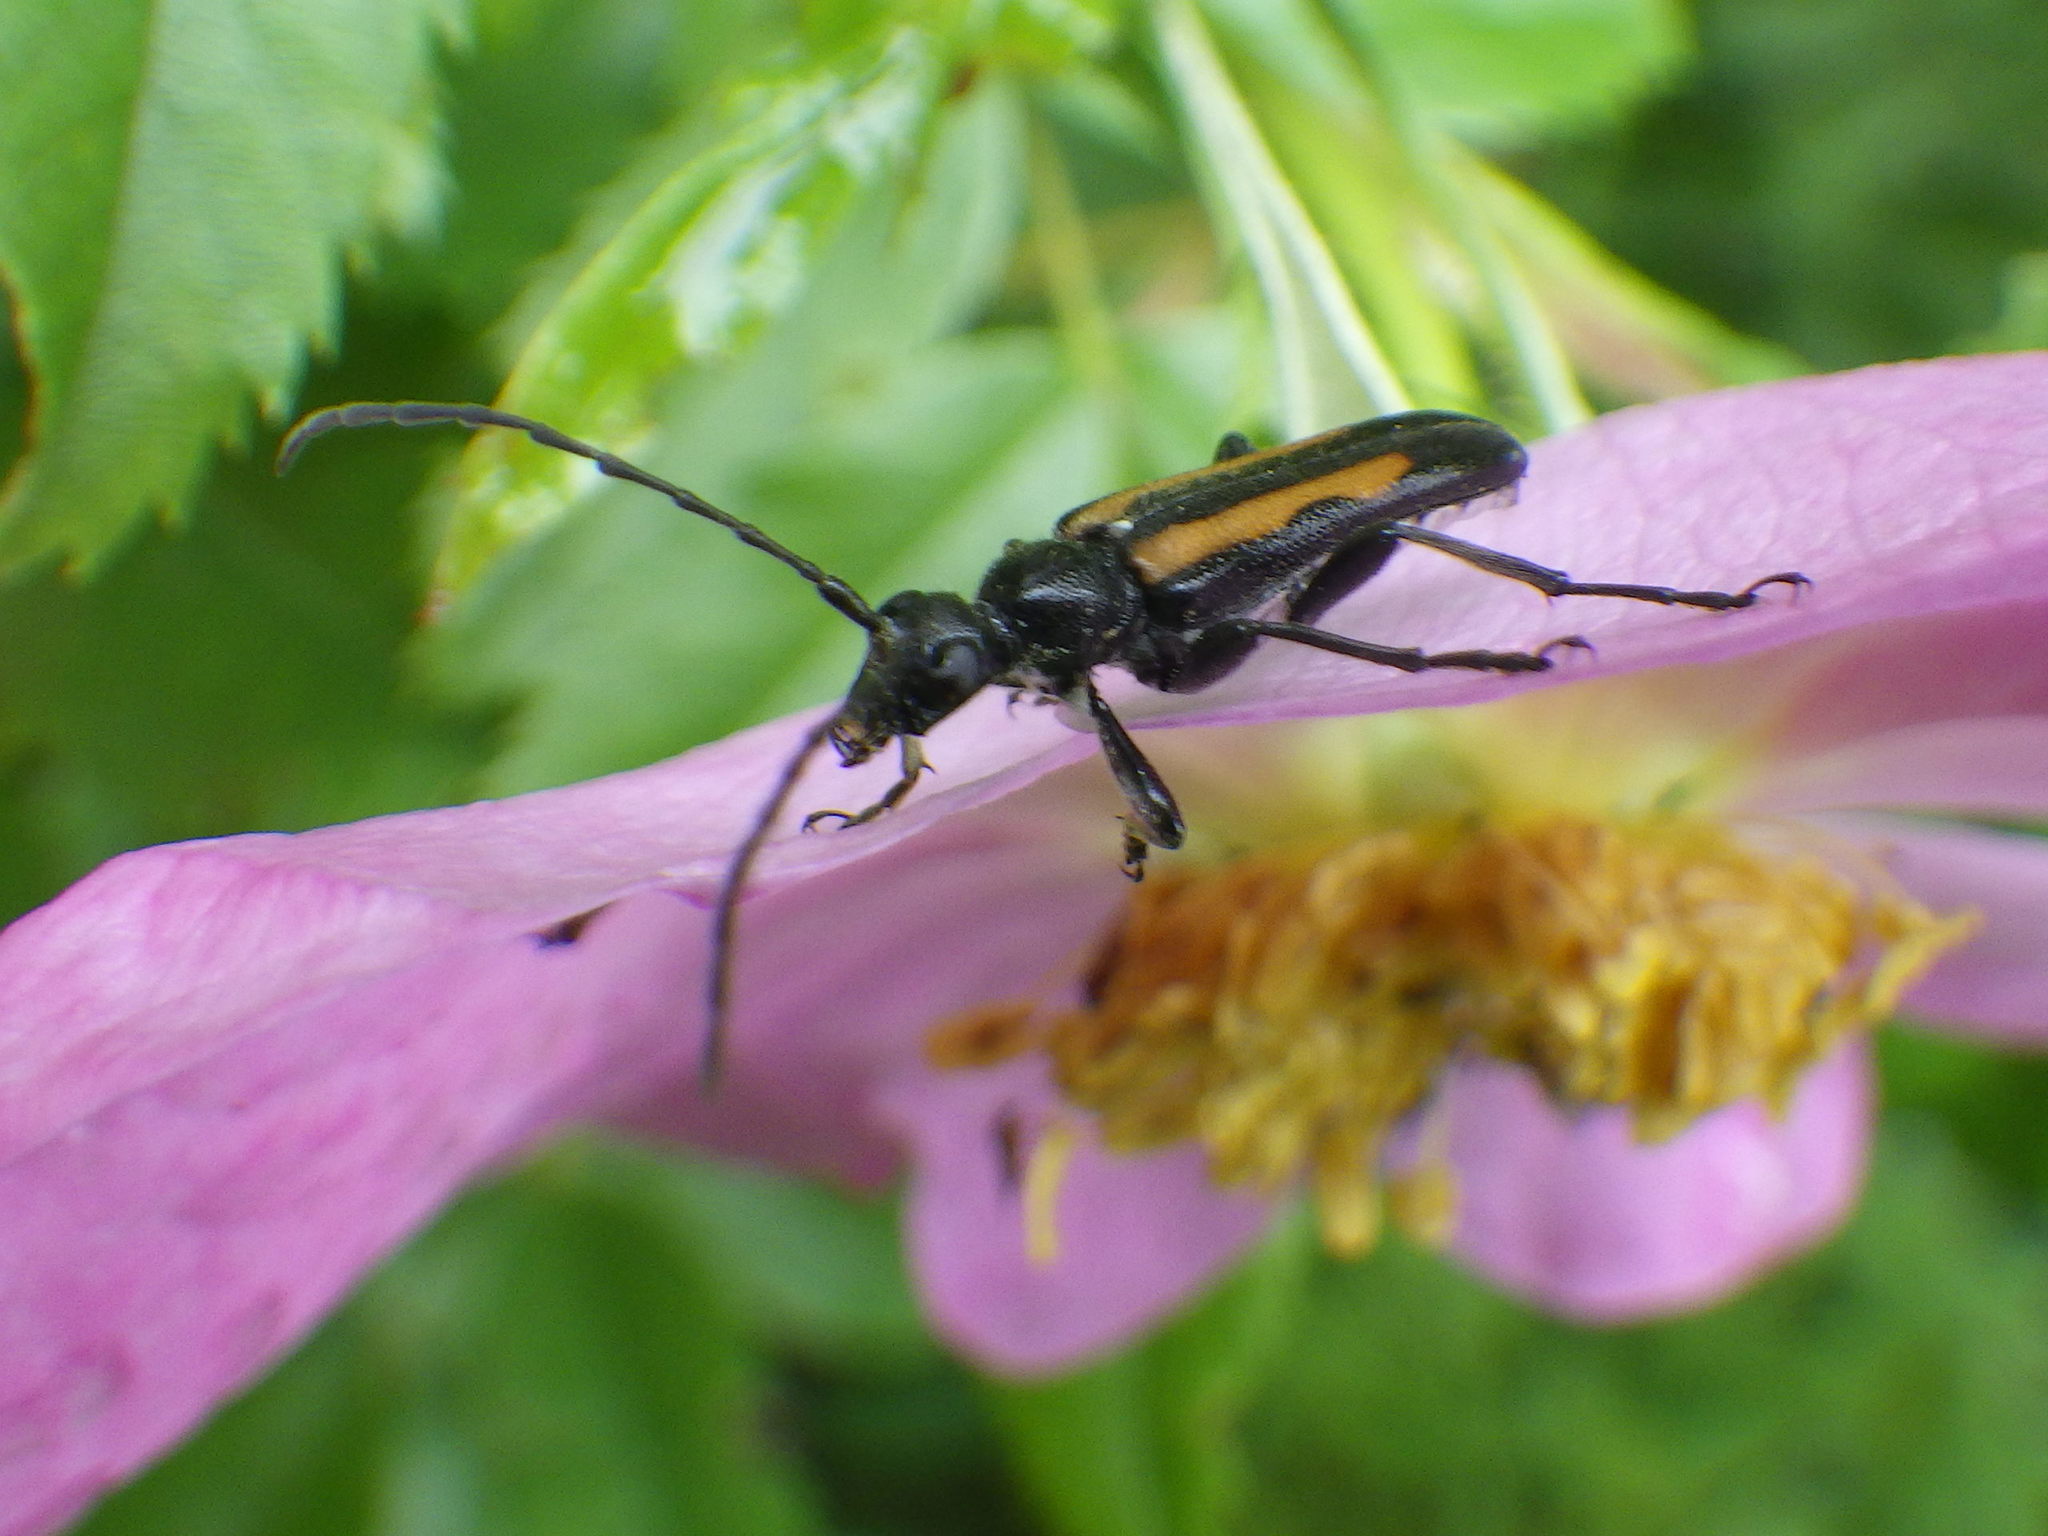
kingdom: Animalia
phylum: Arthropoda
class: Insecta
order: Coleoptera
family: Cerambycidae
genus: Strangalepta
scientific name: Strangalepta abbreviata
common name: Strangalepta flower longhorn beetle
